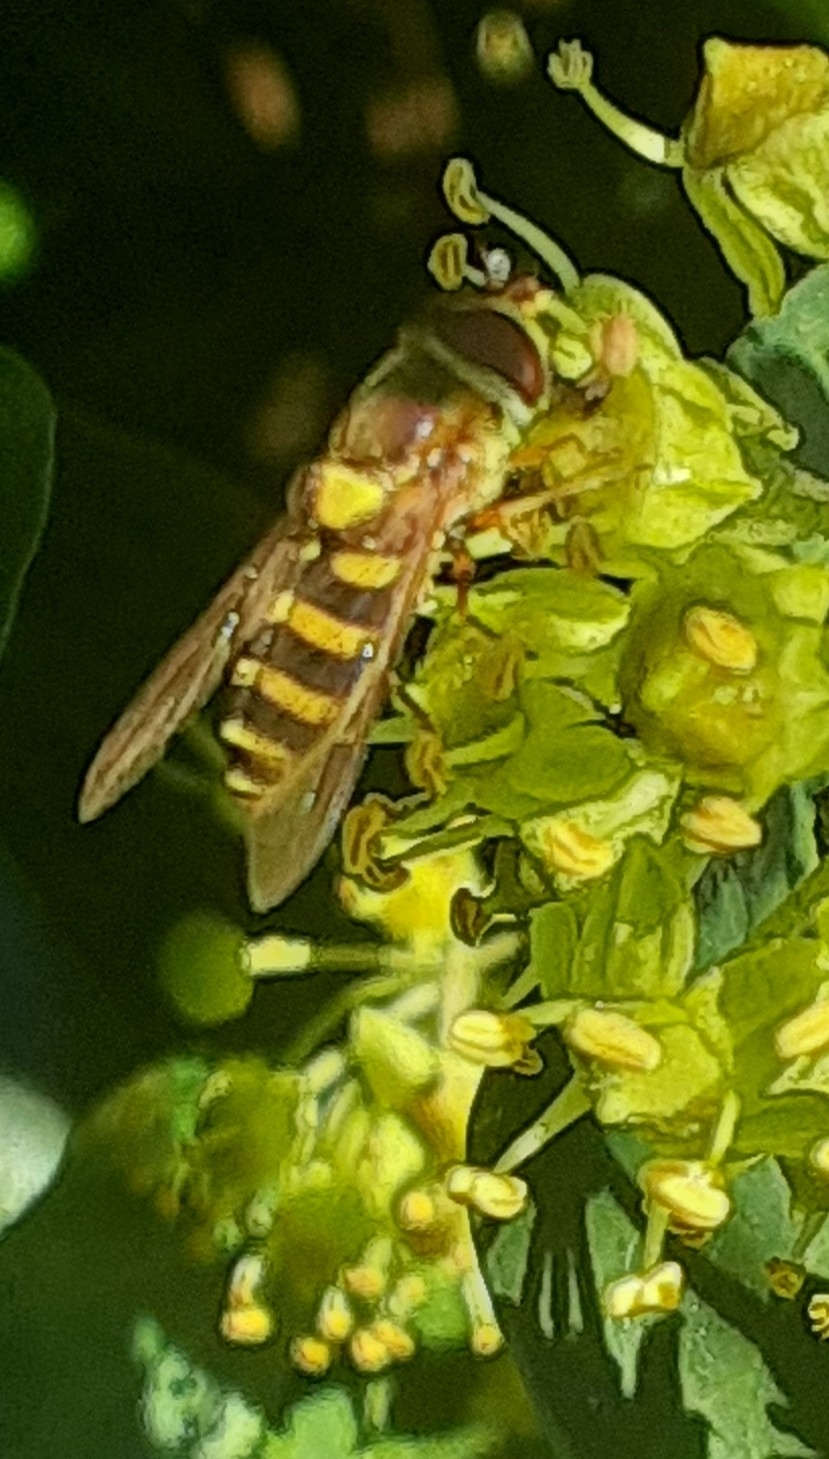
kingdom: Animalia
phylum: Arthropoda
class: Insecta
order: Diptera
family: Syrphidae
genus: Syrphus
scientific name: Syrphus
